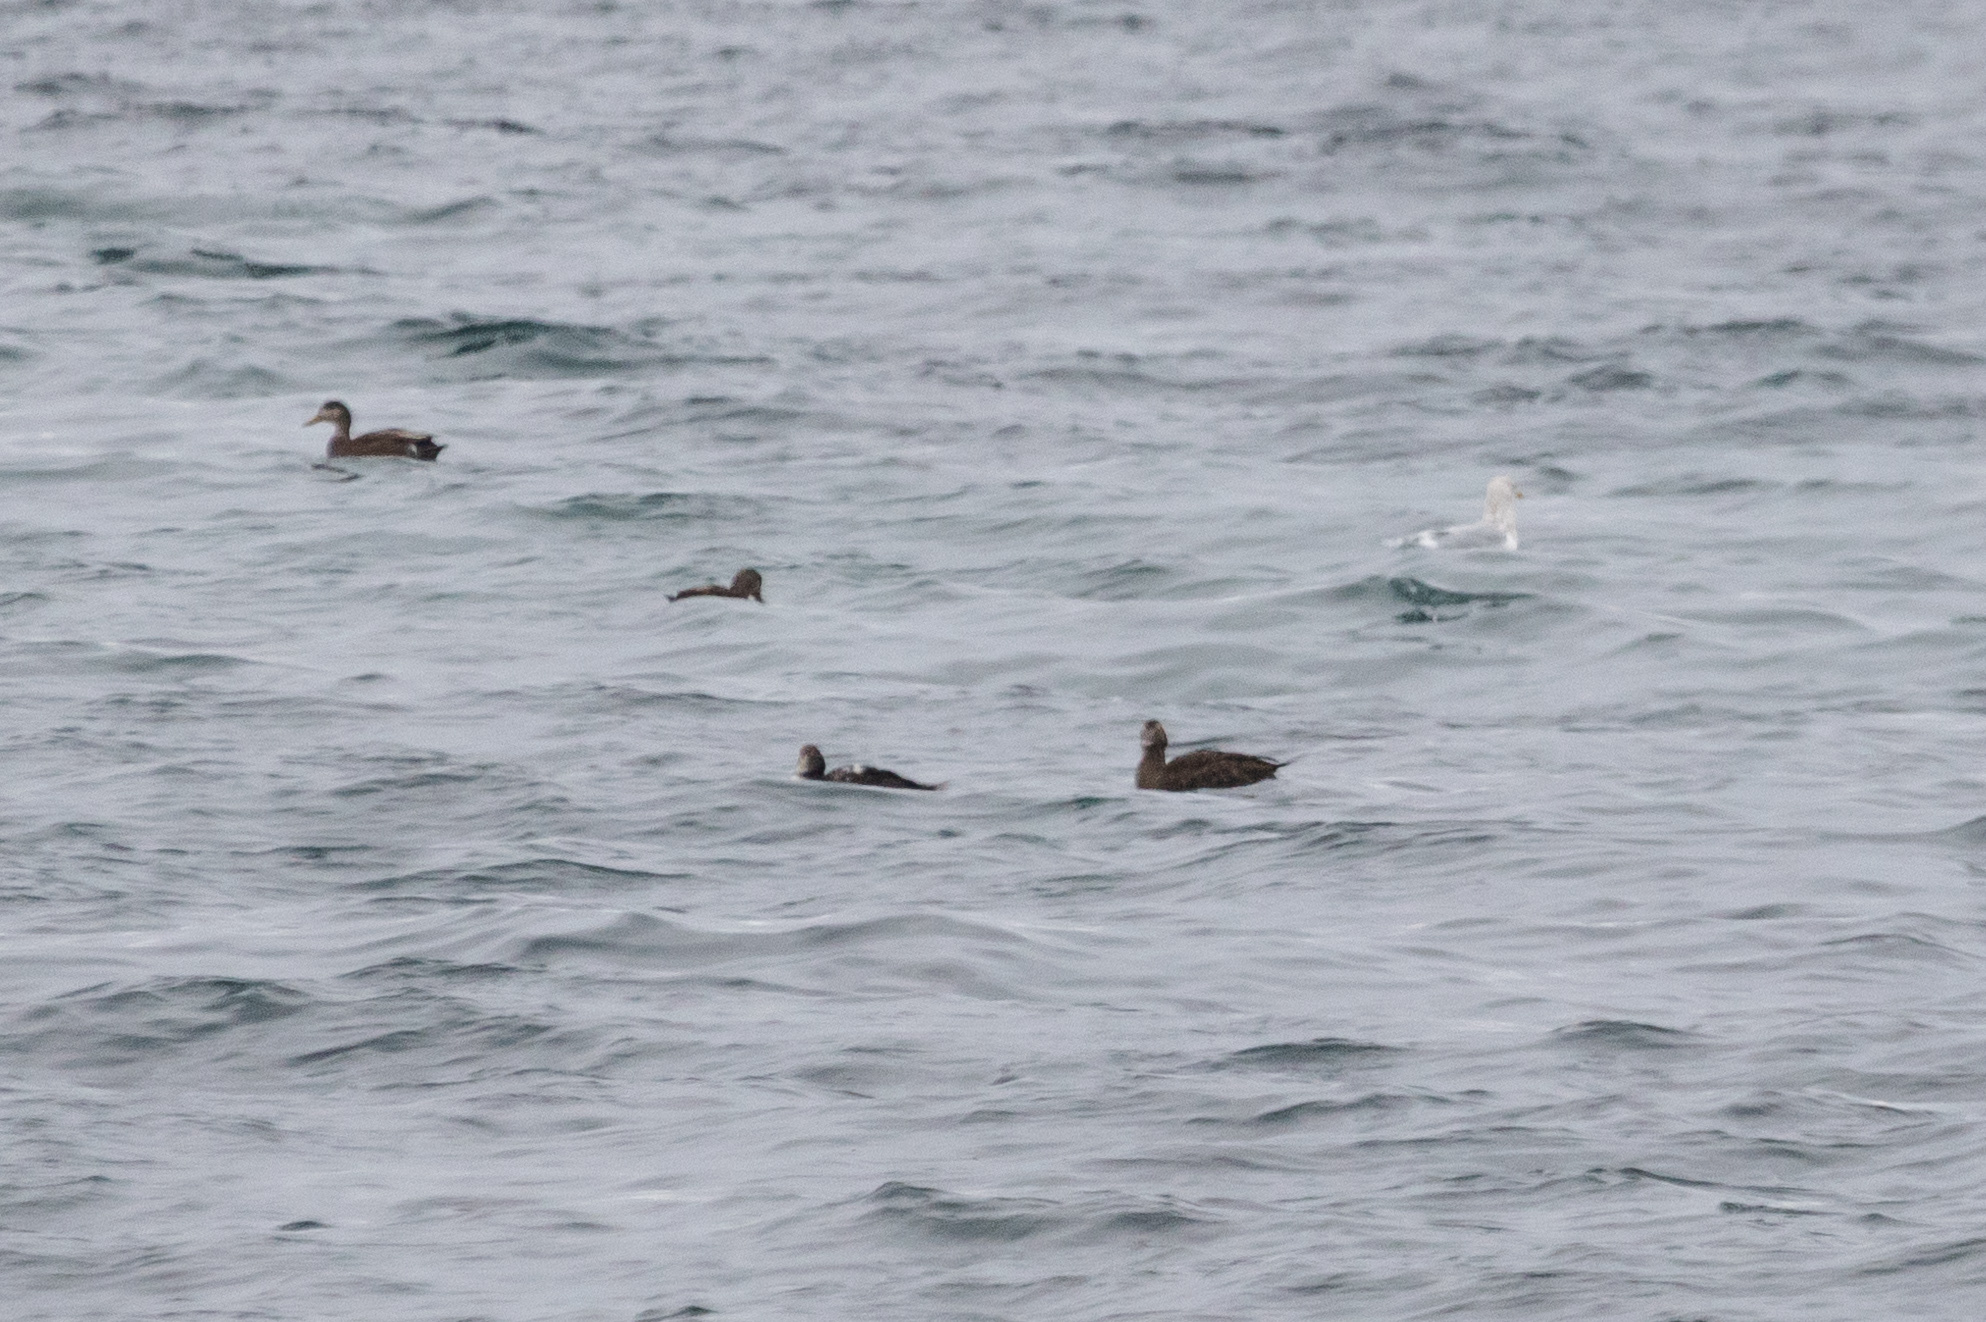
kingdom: Animalia
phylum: Chordata
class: Aves
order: Anseriformes
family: Anatidae
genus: Somateria
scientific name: Somateria mollissima
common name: Common eider
